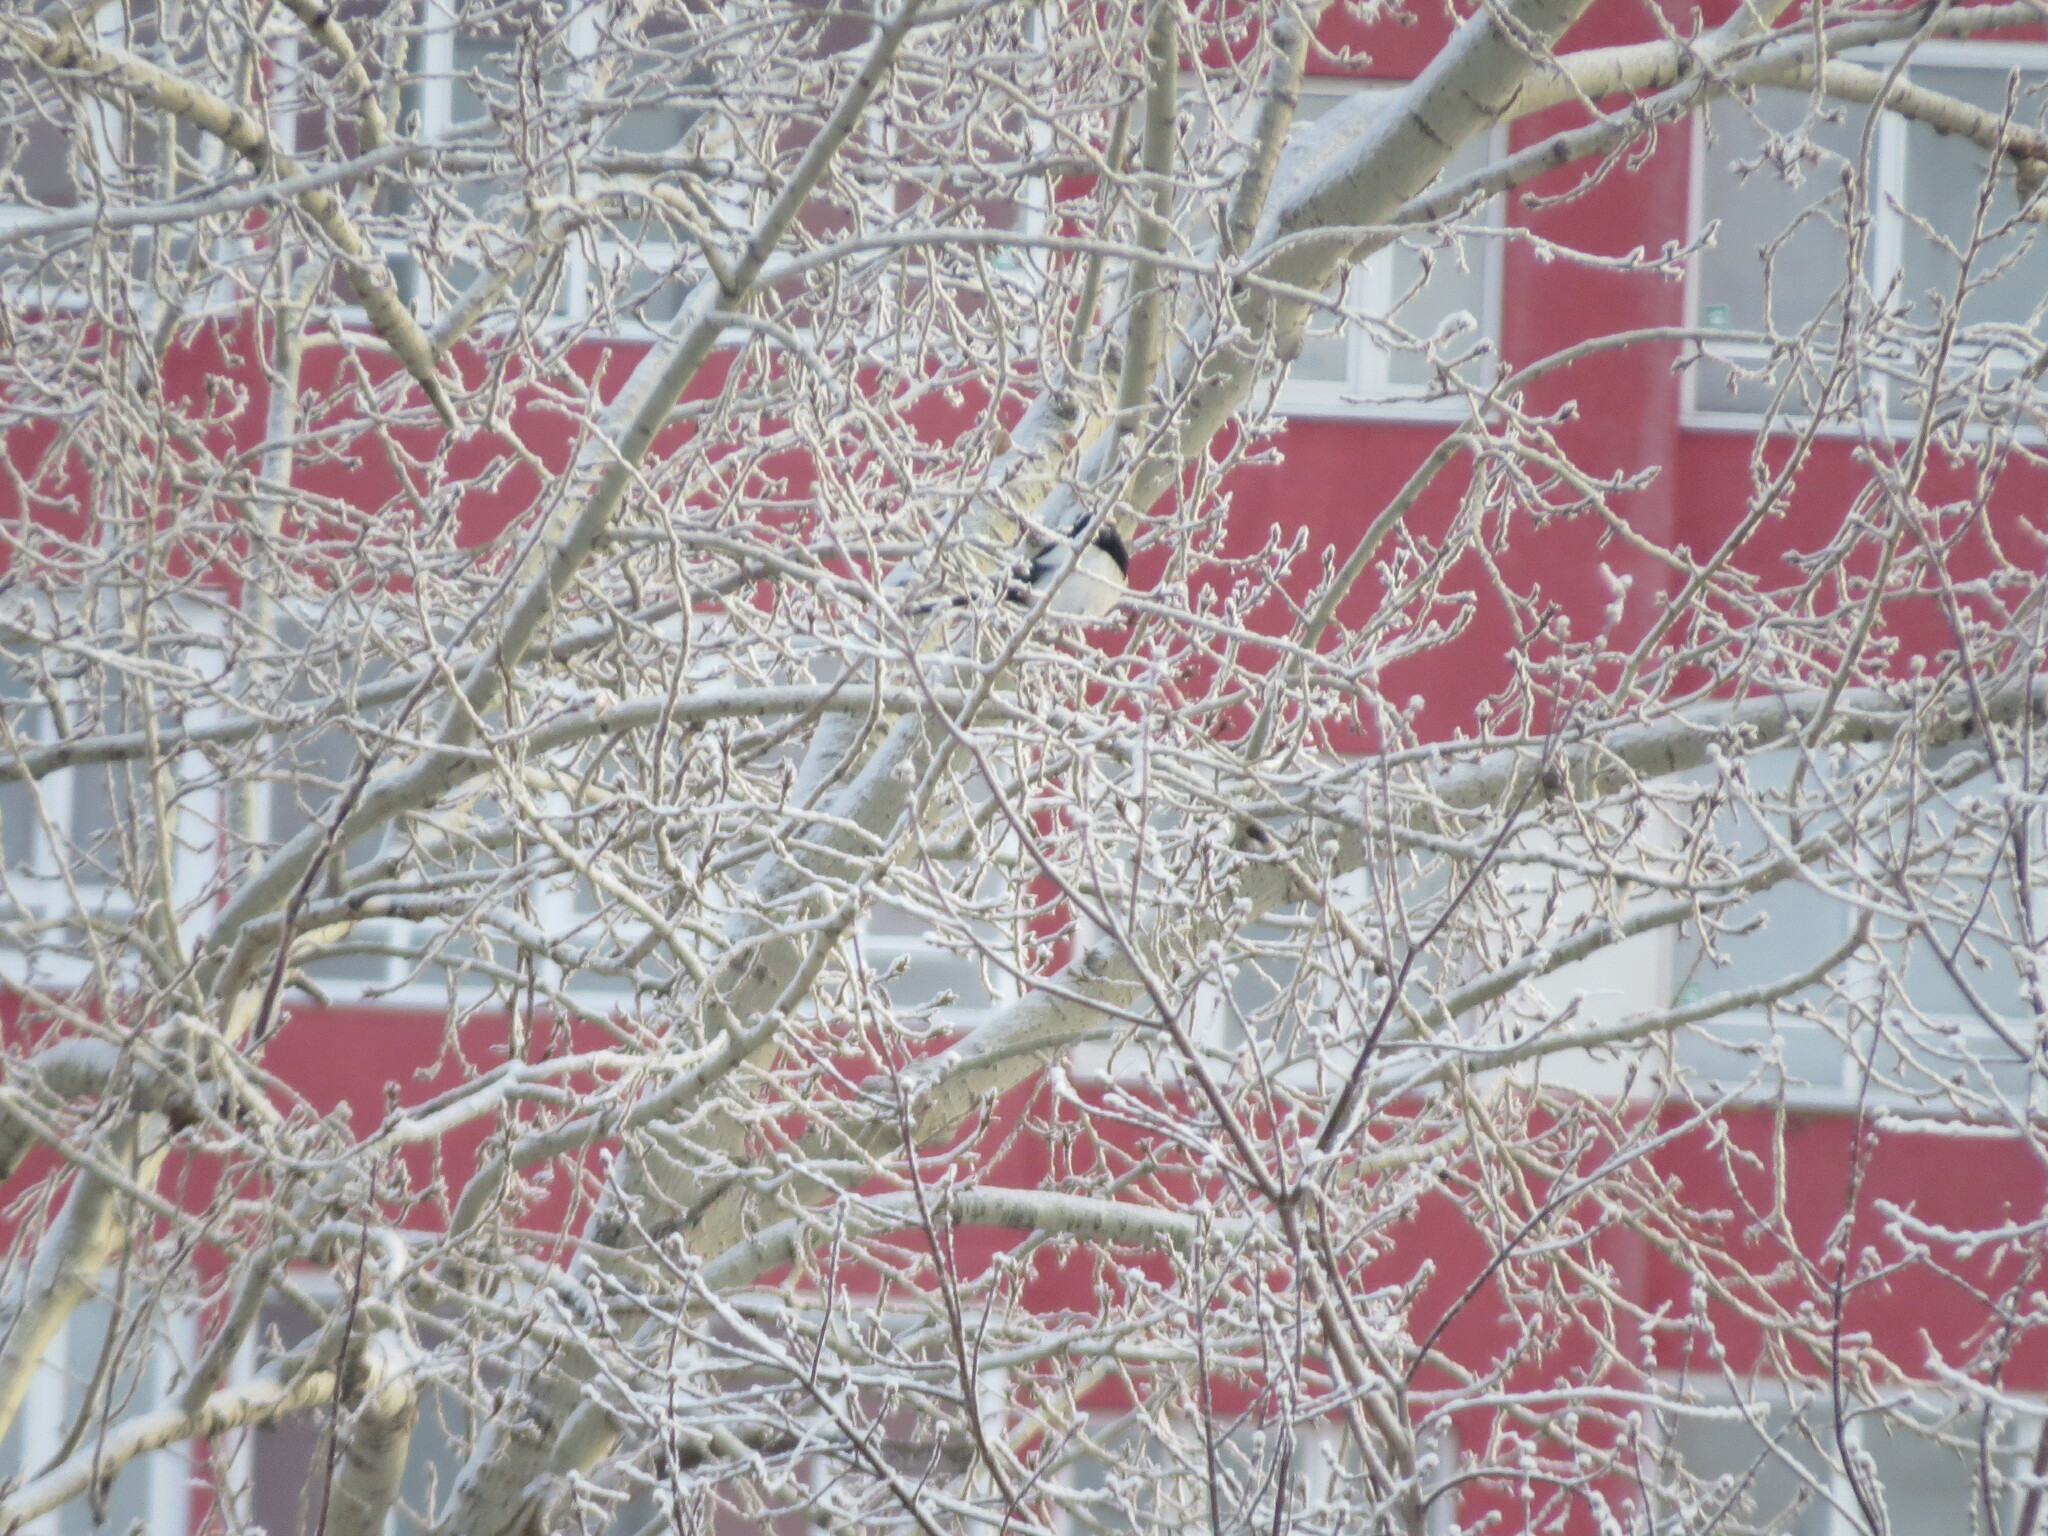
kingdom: Animalia
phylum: Chordata
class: Aves
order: Passeriformes
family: Corvidae
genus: Pica
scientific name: Pica pica
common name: Eurasian magpie
